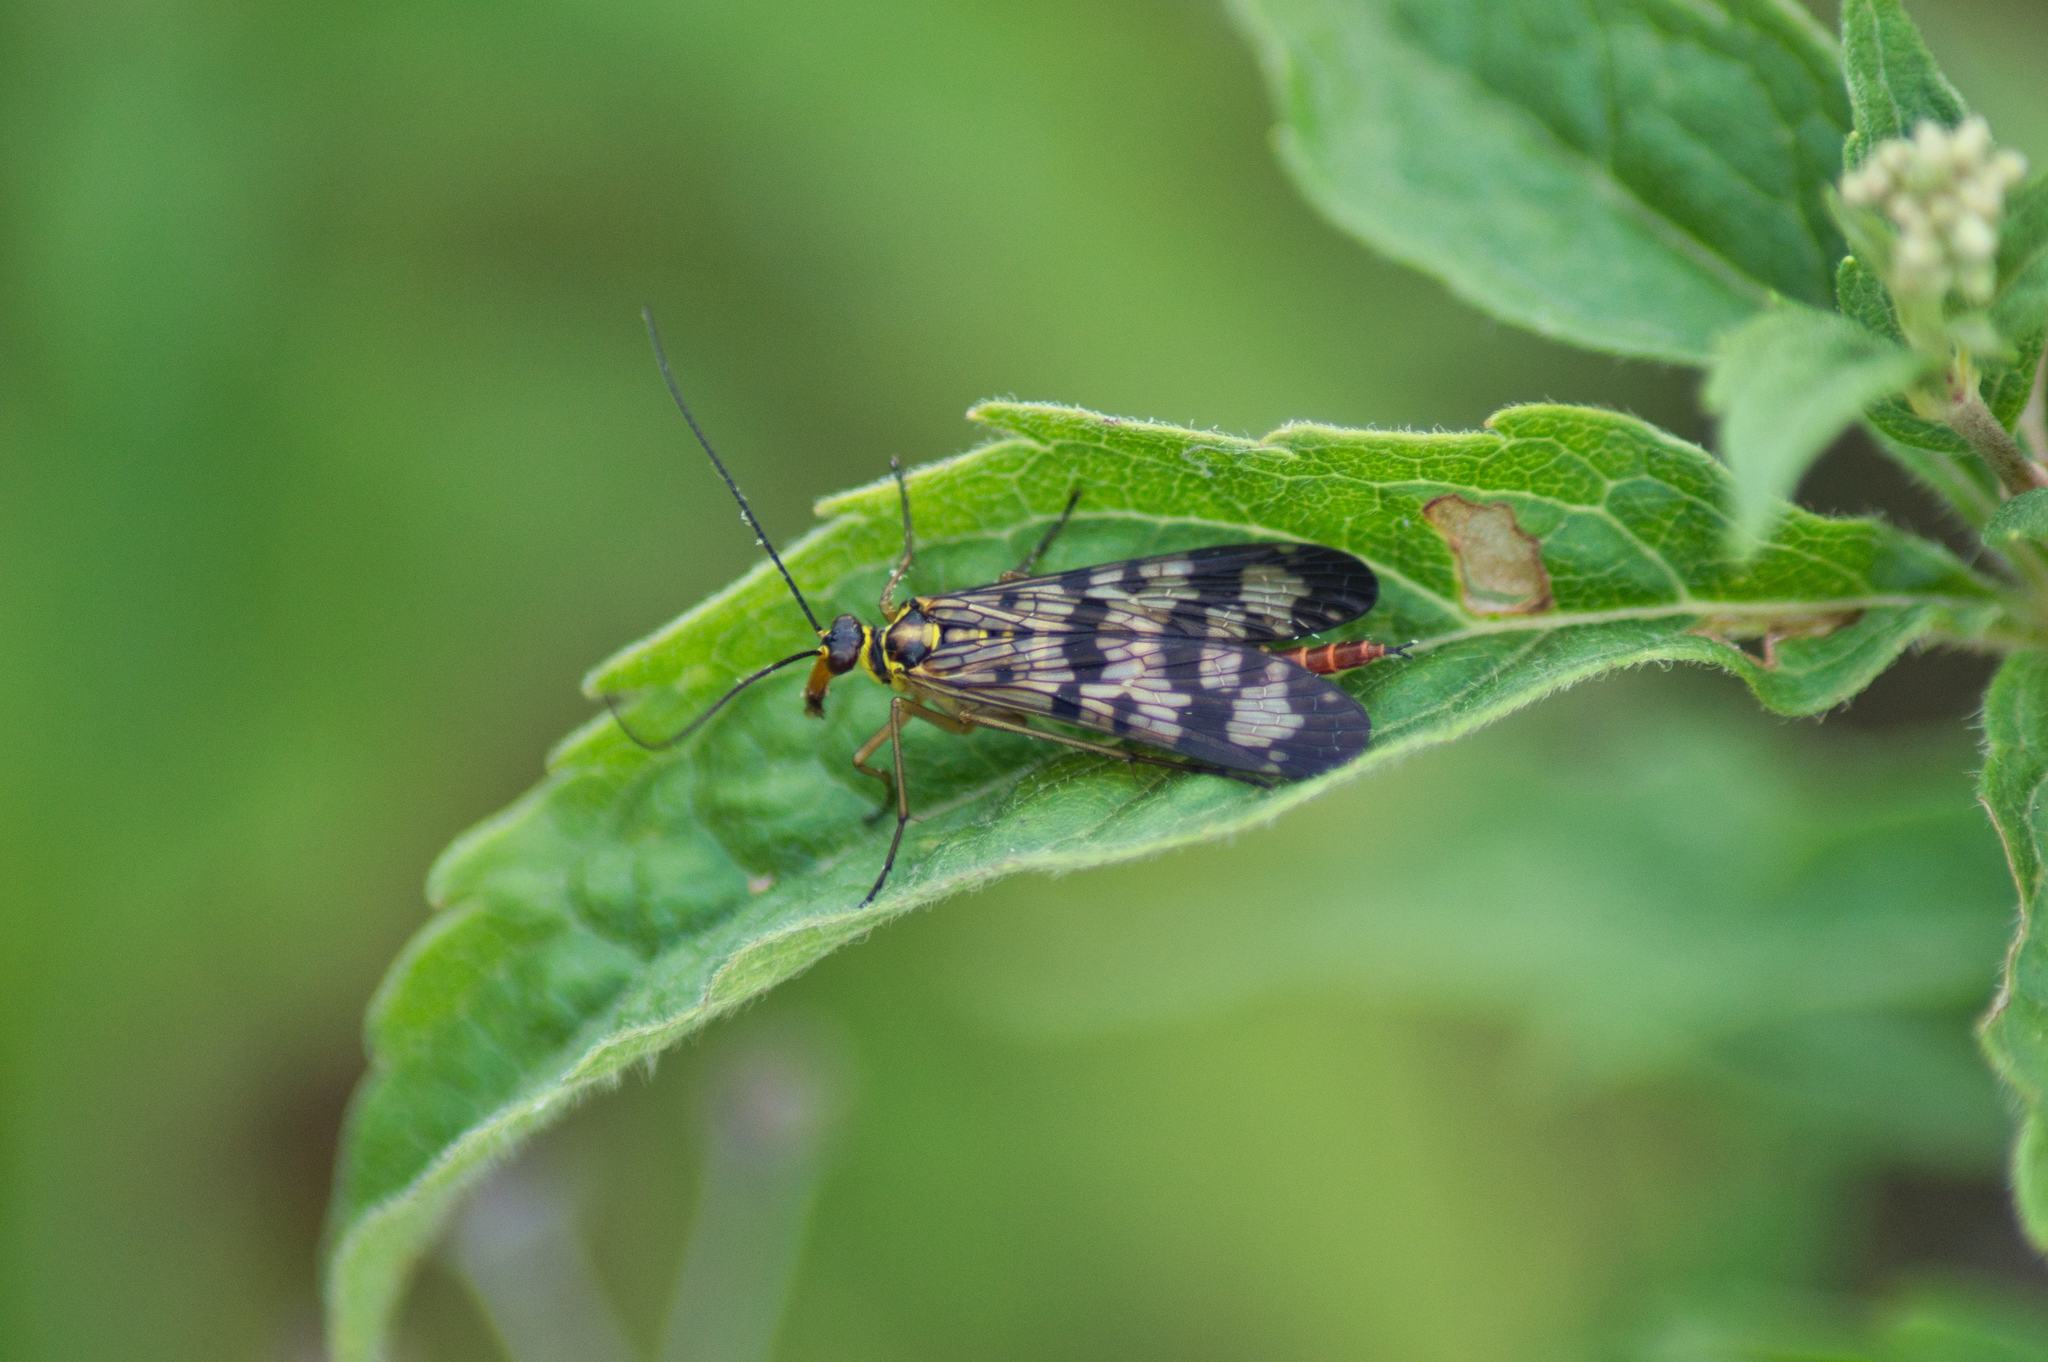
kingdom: Animalia
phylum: Arthropoda
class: Insecta
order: Mecoptera
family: Panorpidae
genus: Panorpa
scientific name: Panorpa communis
